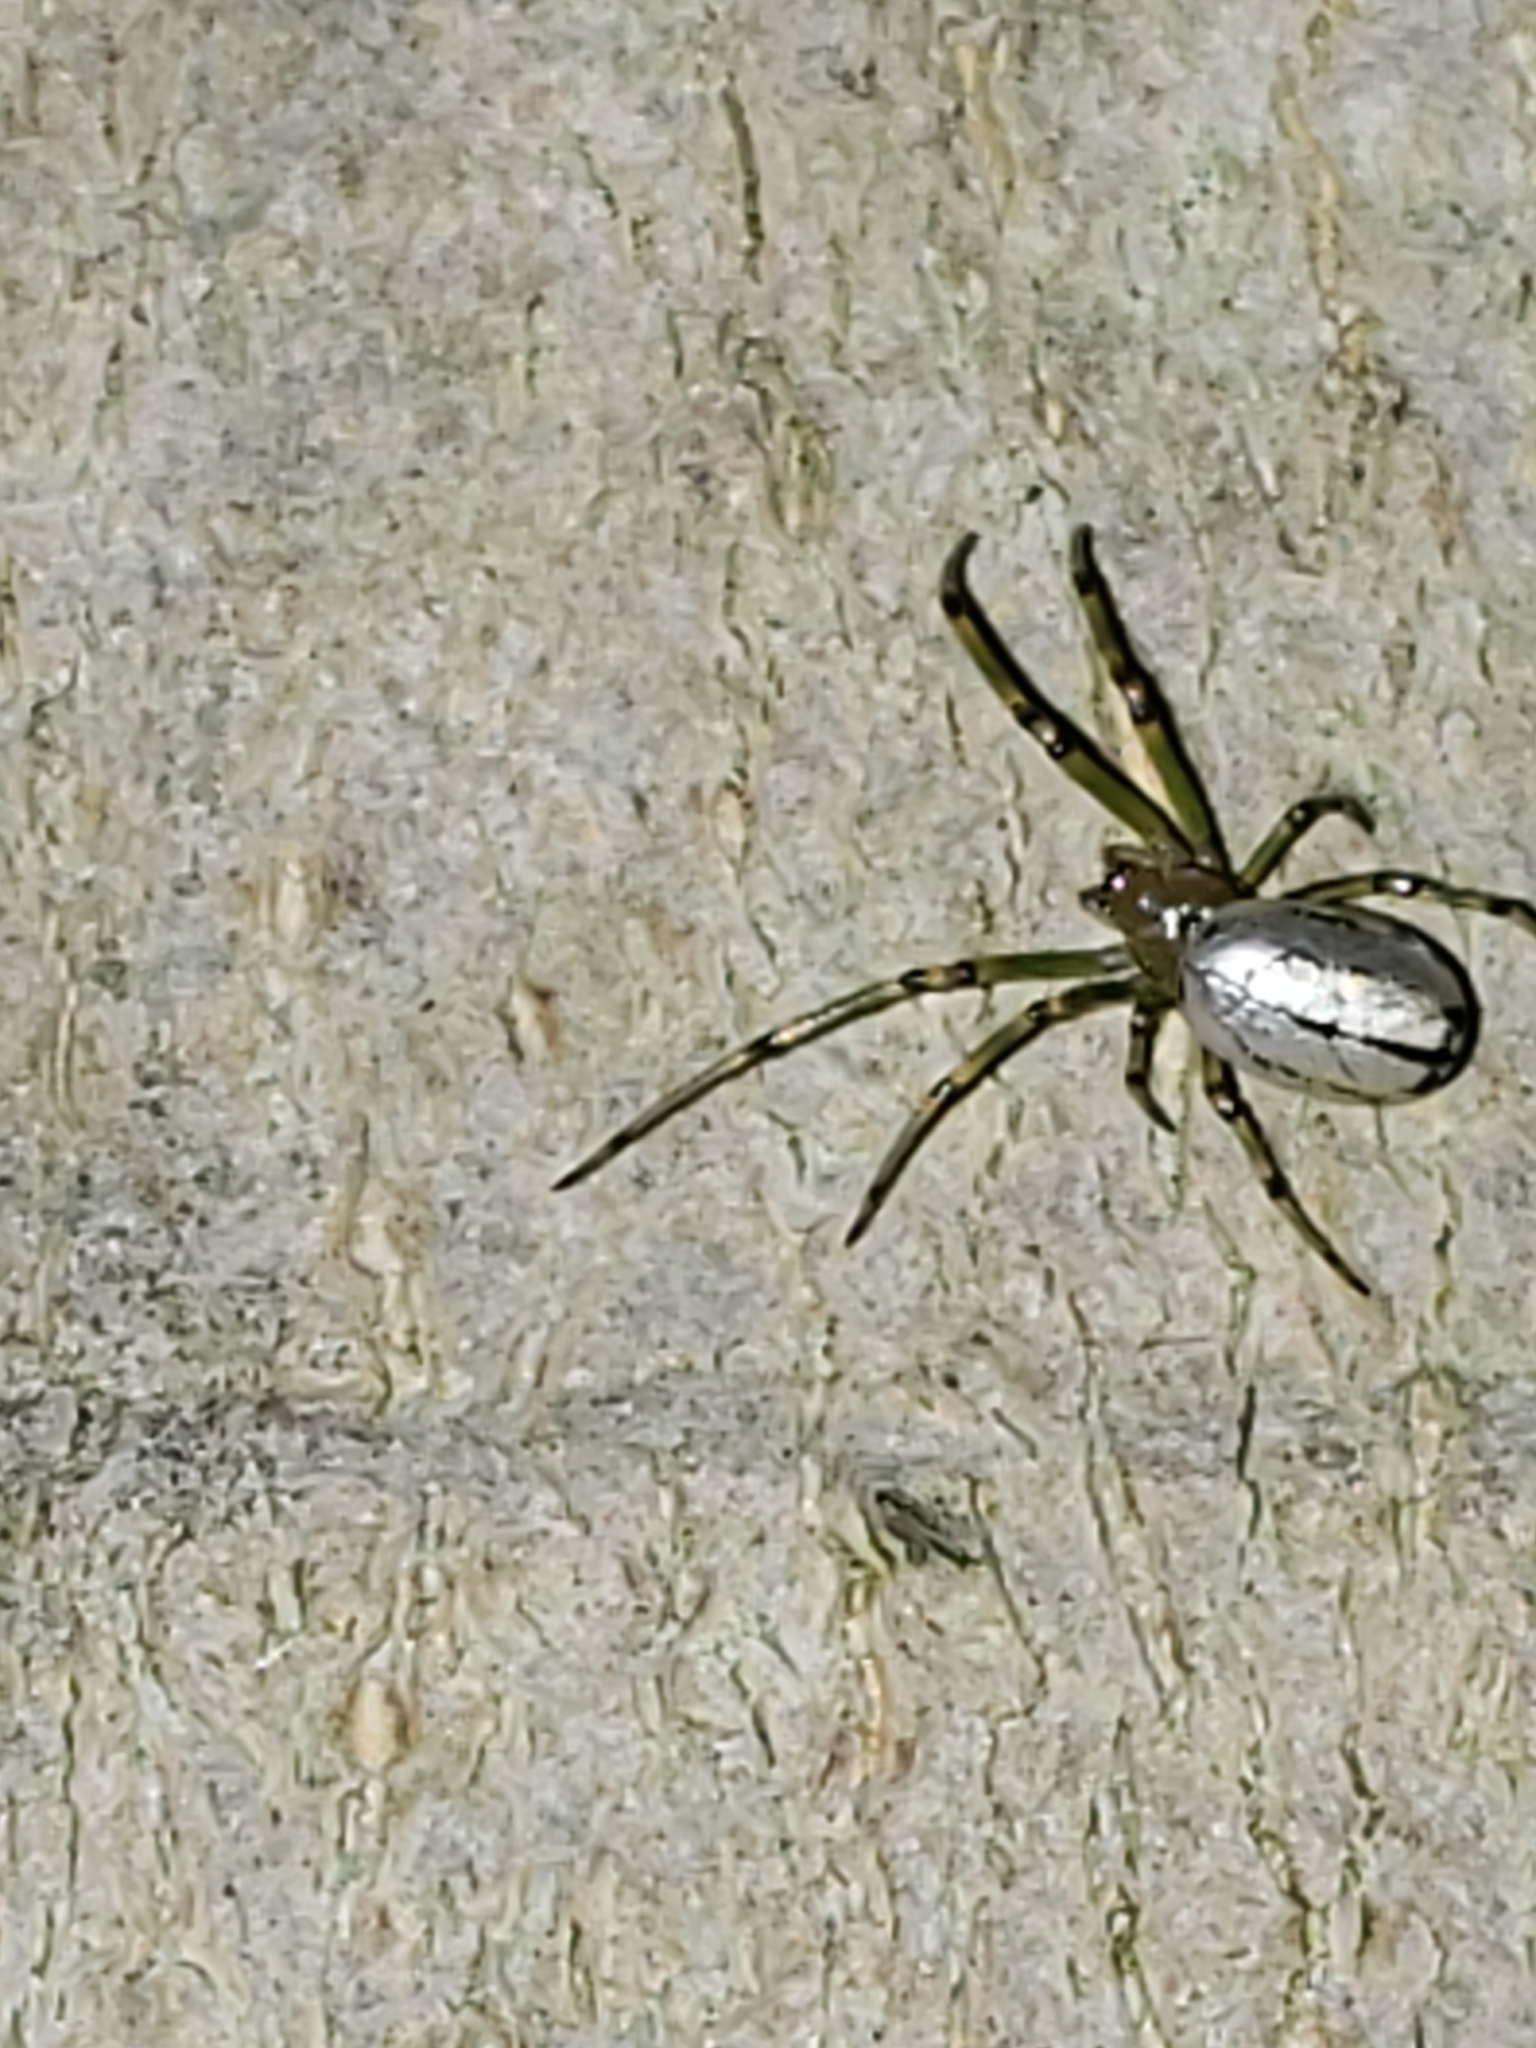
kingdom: Animalia
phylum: Arthropoda
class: Arachnida
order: Araneae
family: Tetragnathidae
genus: Leucauge
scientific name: Leucauge venusta
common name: Longjawed orb weavers
